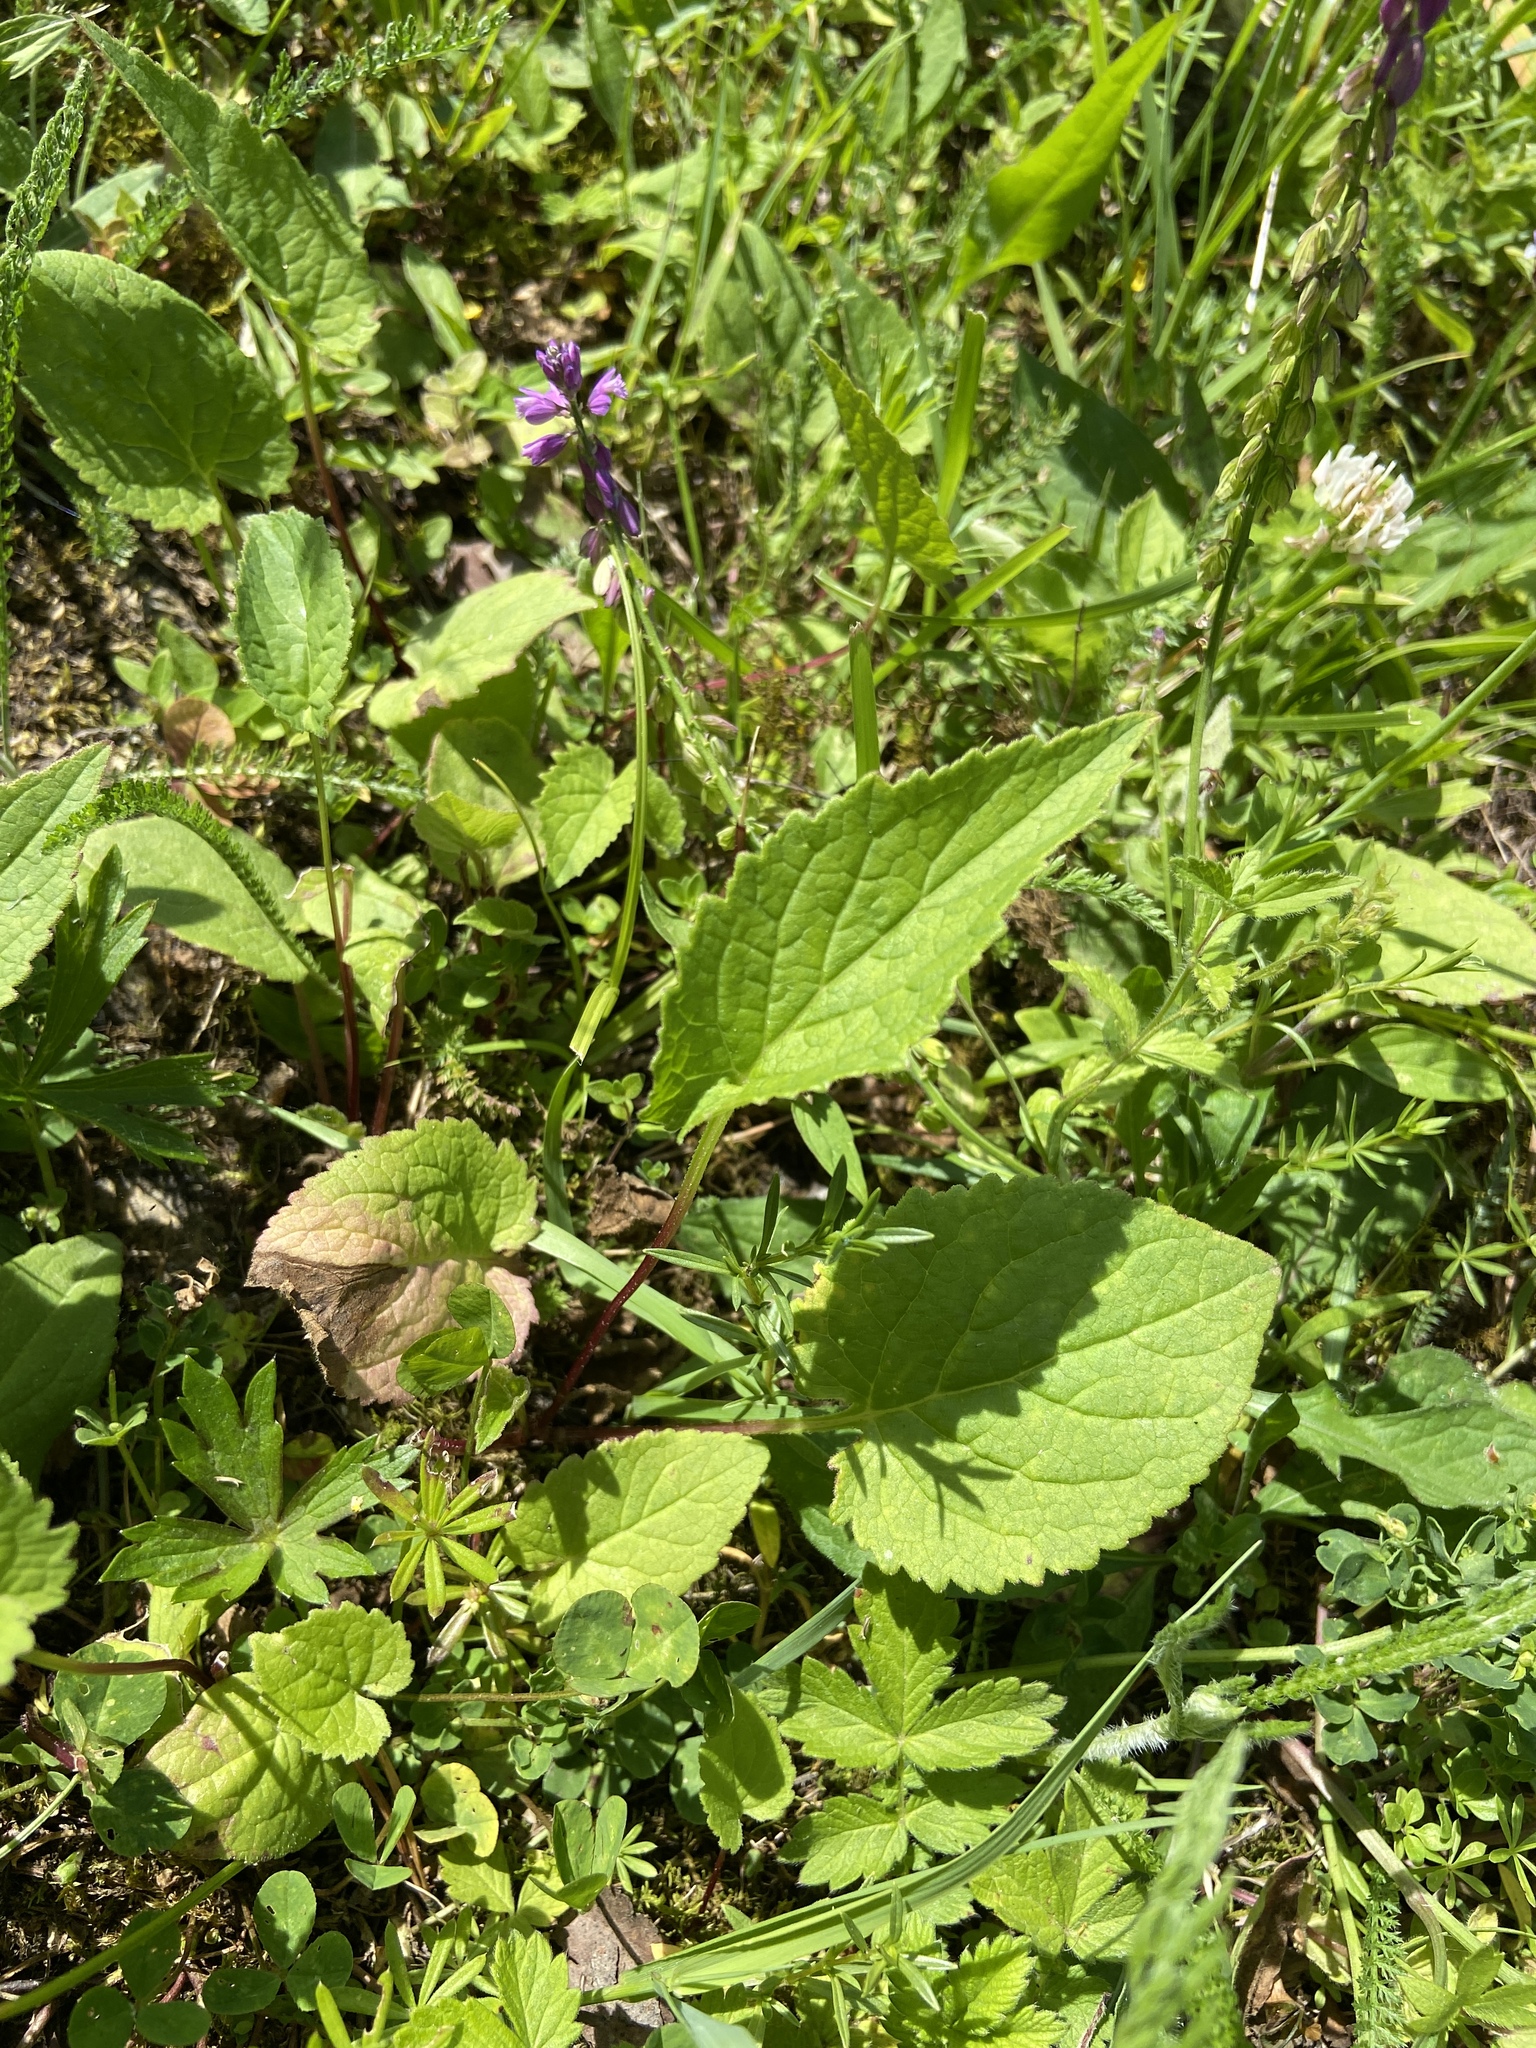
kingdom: Plantae
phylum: Tracheophyta
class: Magnoliopsida
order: Fabales
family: Polygalaceae
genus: Polygala
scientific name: Polygala comosa
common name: Tufted milkwort
